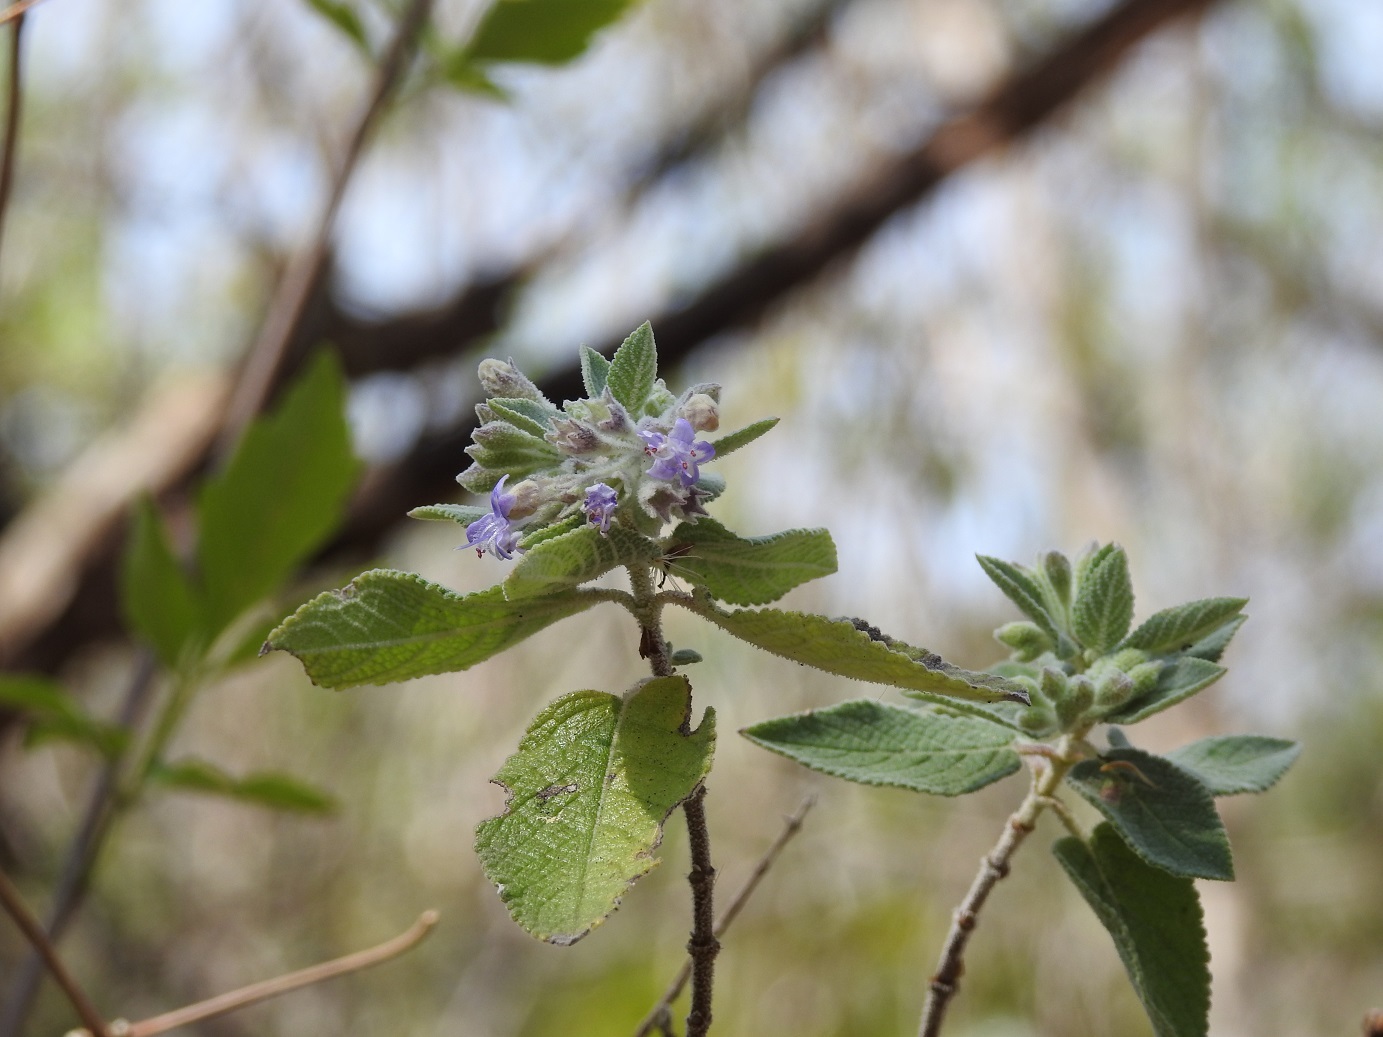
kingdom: Plantae
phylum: Tracheophyta
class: Magnoliopsida
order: Lamiales
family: Lamiaceae
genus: Condea
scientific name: Condea tomentosa
